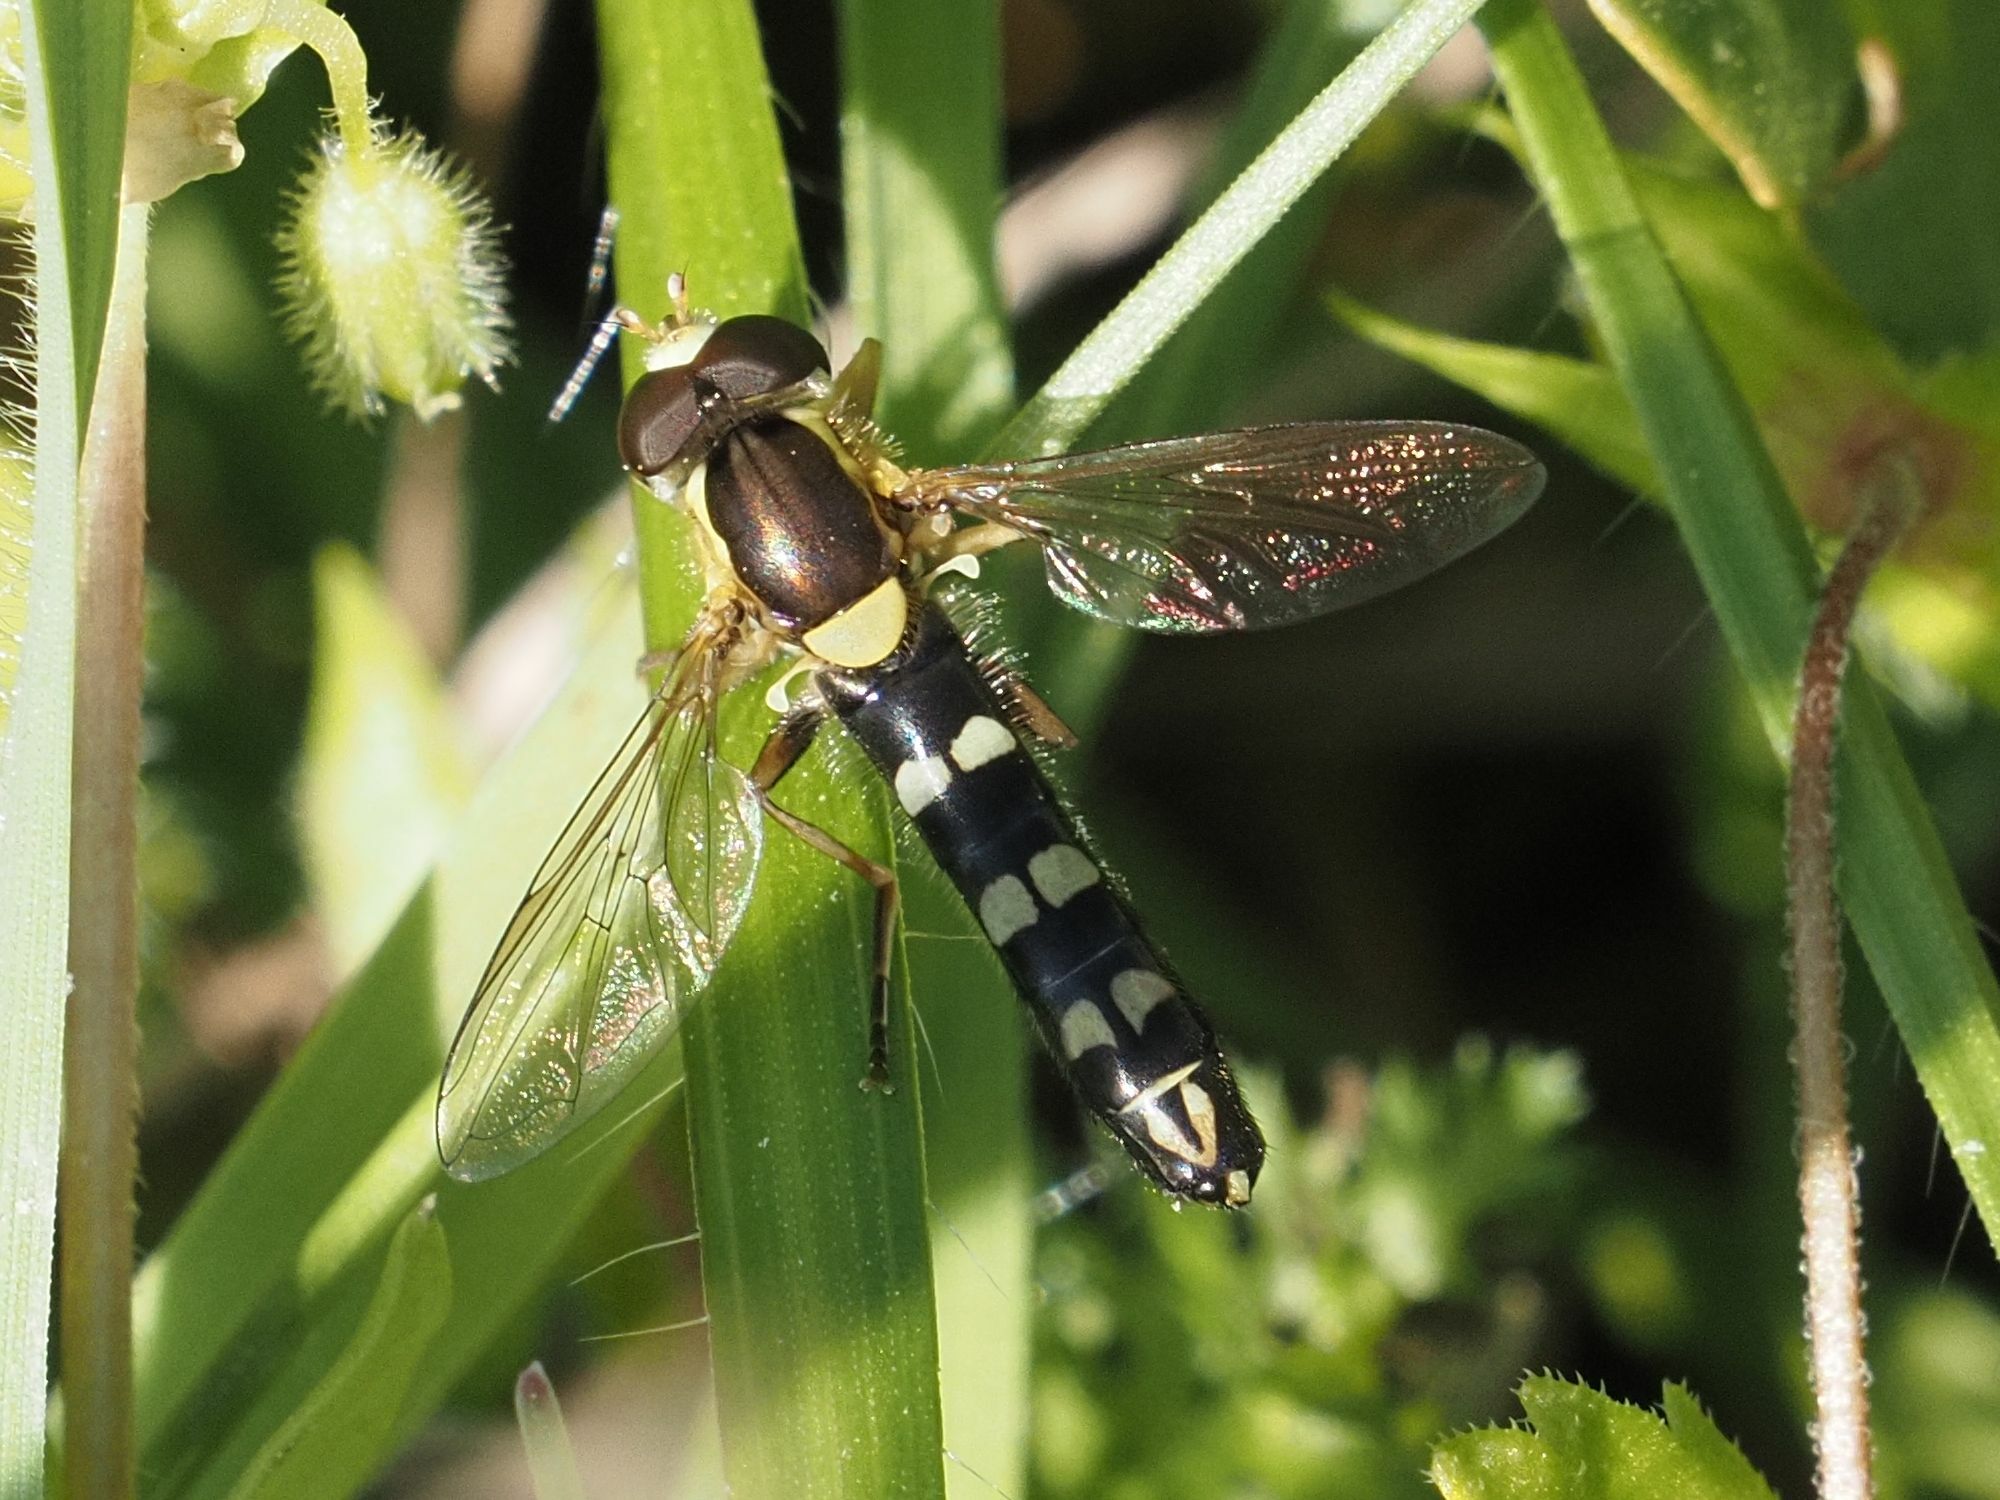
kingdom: Animalia
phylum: Arthropoda
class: Insecta
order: Diptera
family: Syrphidae
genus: Sphaerophoria
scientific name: Sphaerophoria scripta
